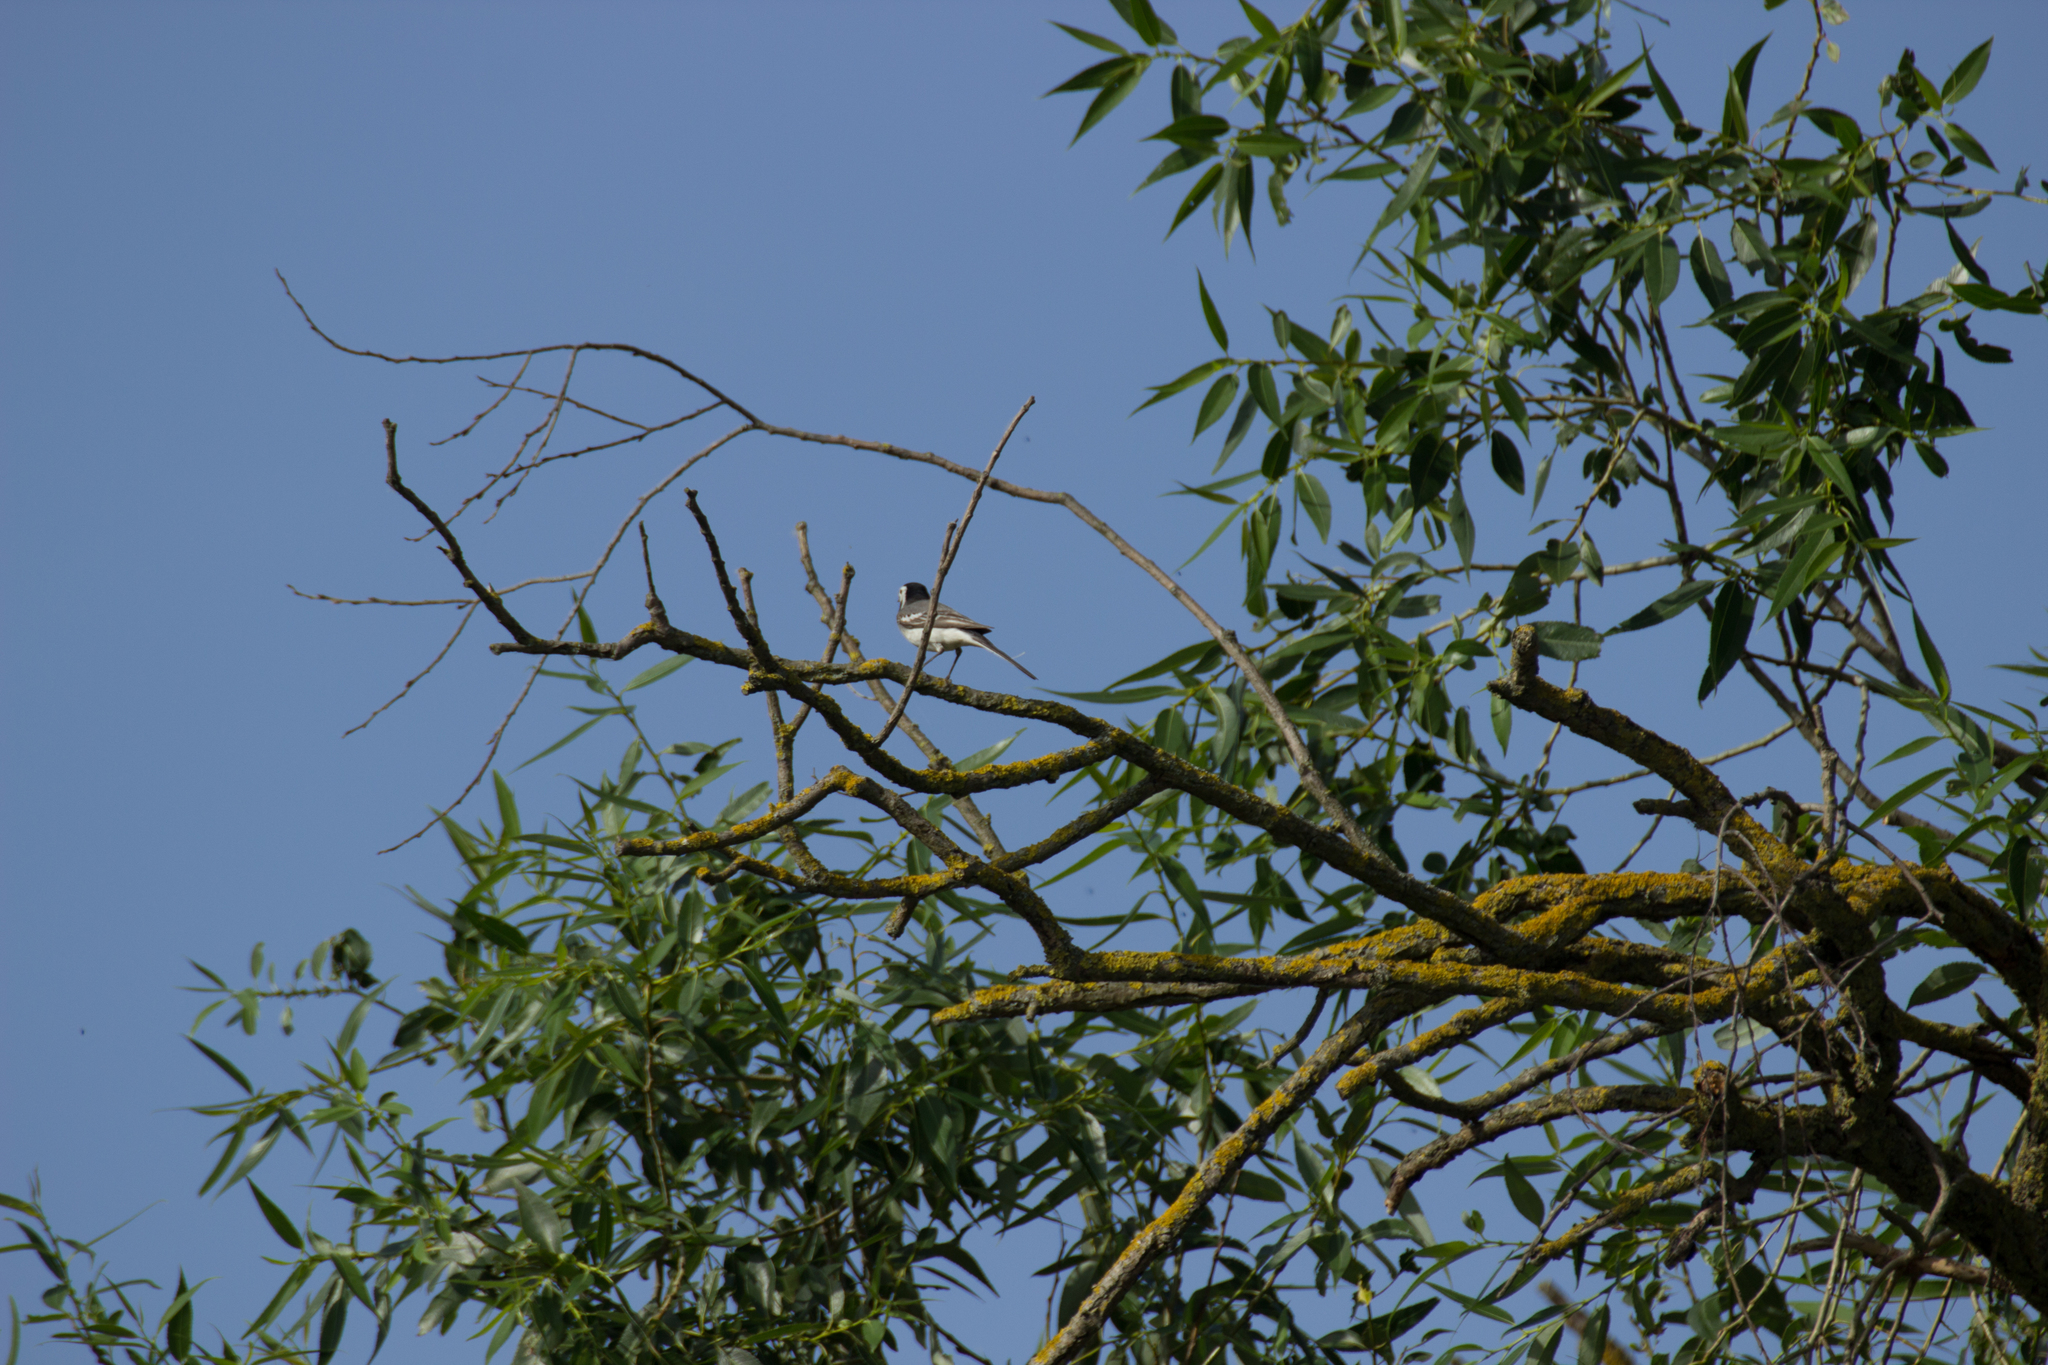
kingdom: Animalia
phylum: Chordata
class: Aves
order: Passeriformes
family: Motacillidae
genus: Motacilla
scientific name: Motacilla alba
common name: White wagtail
